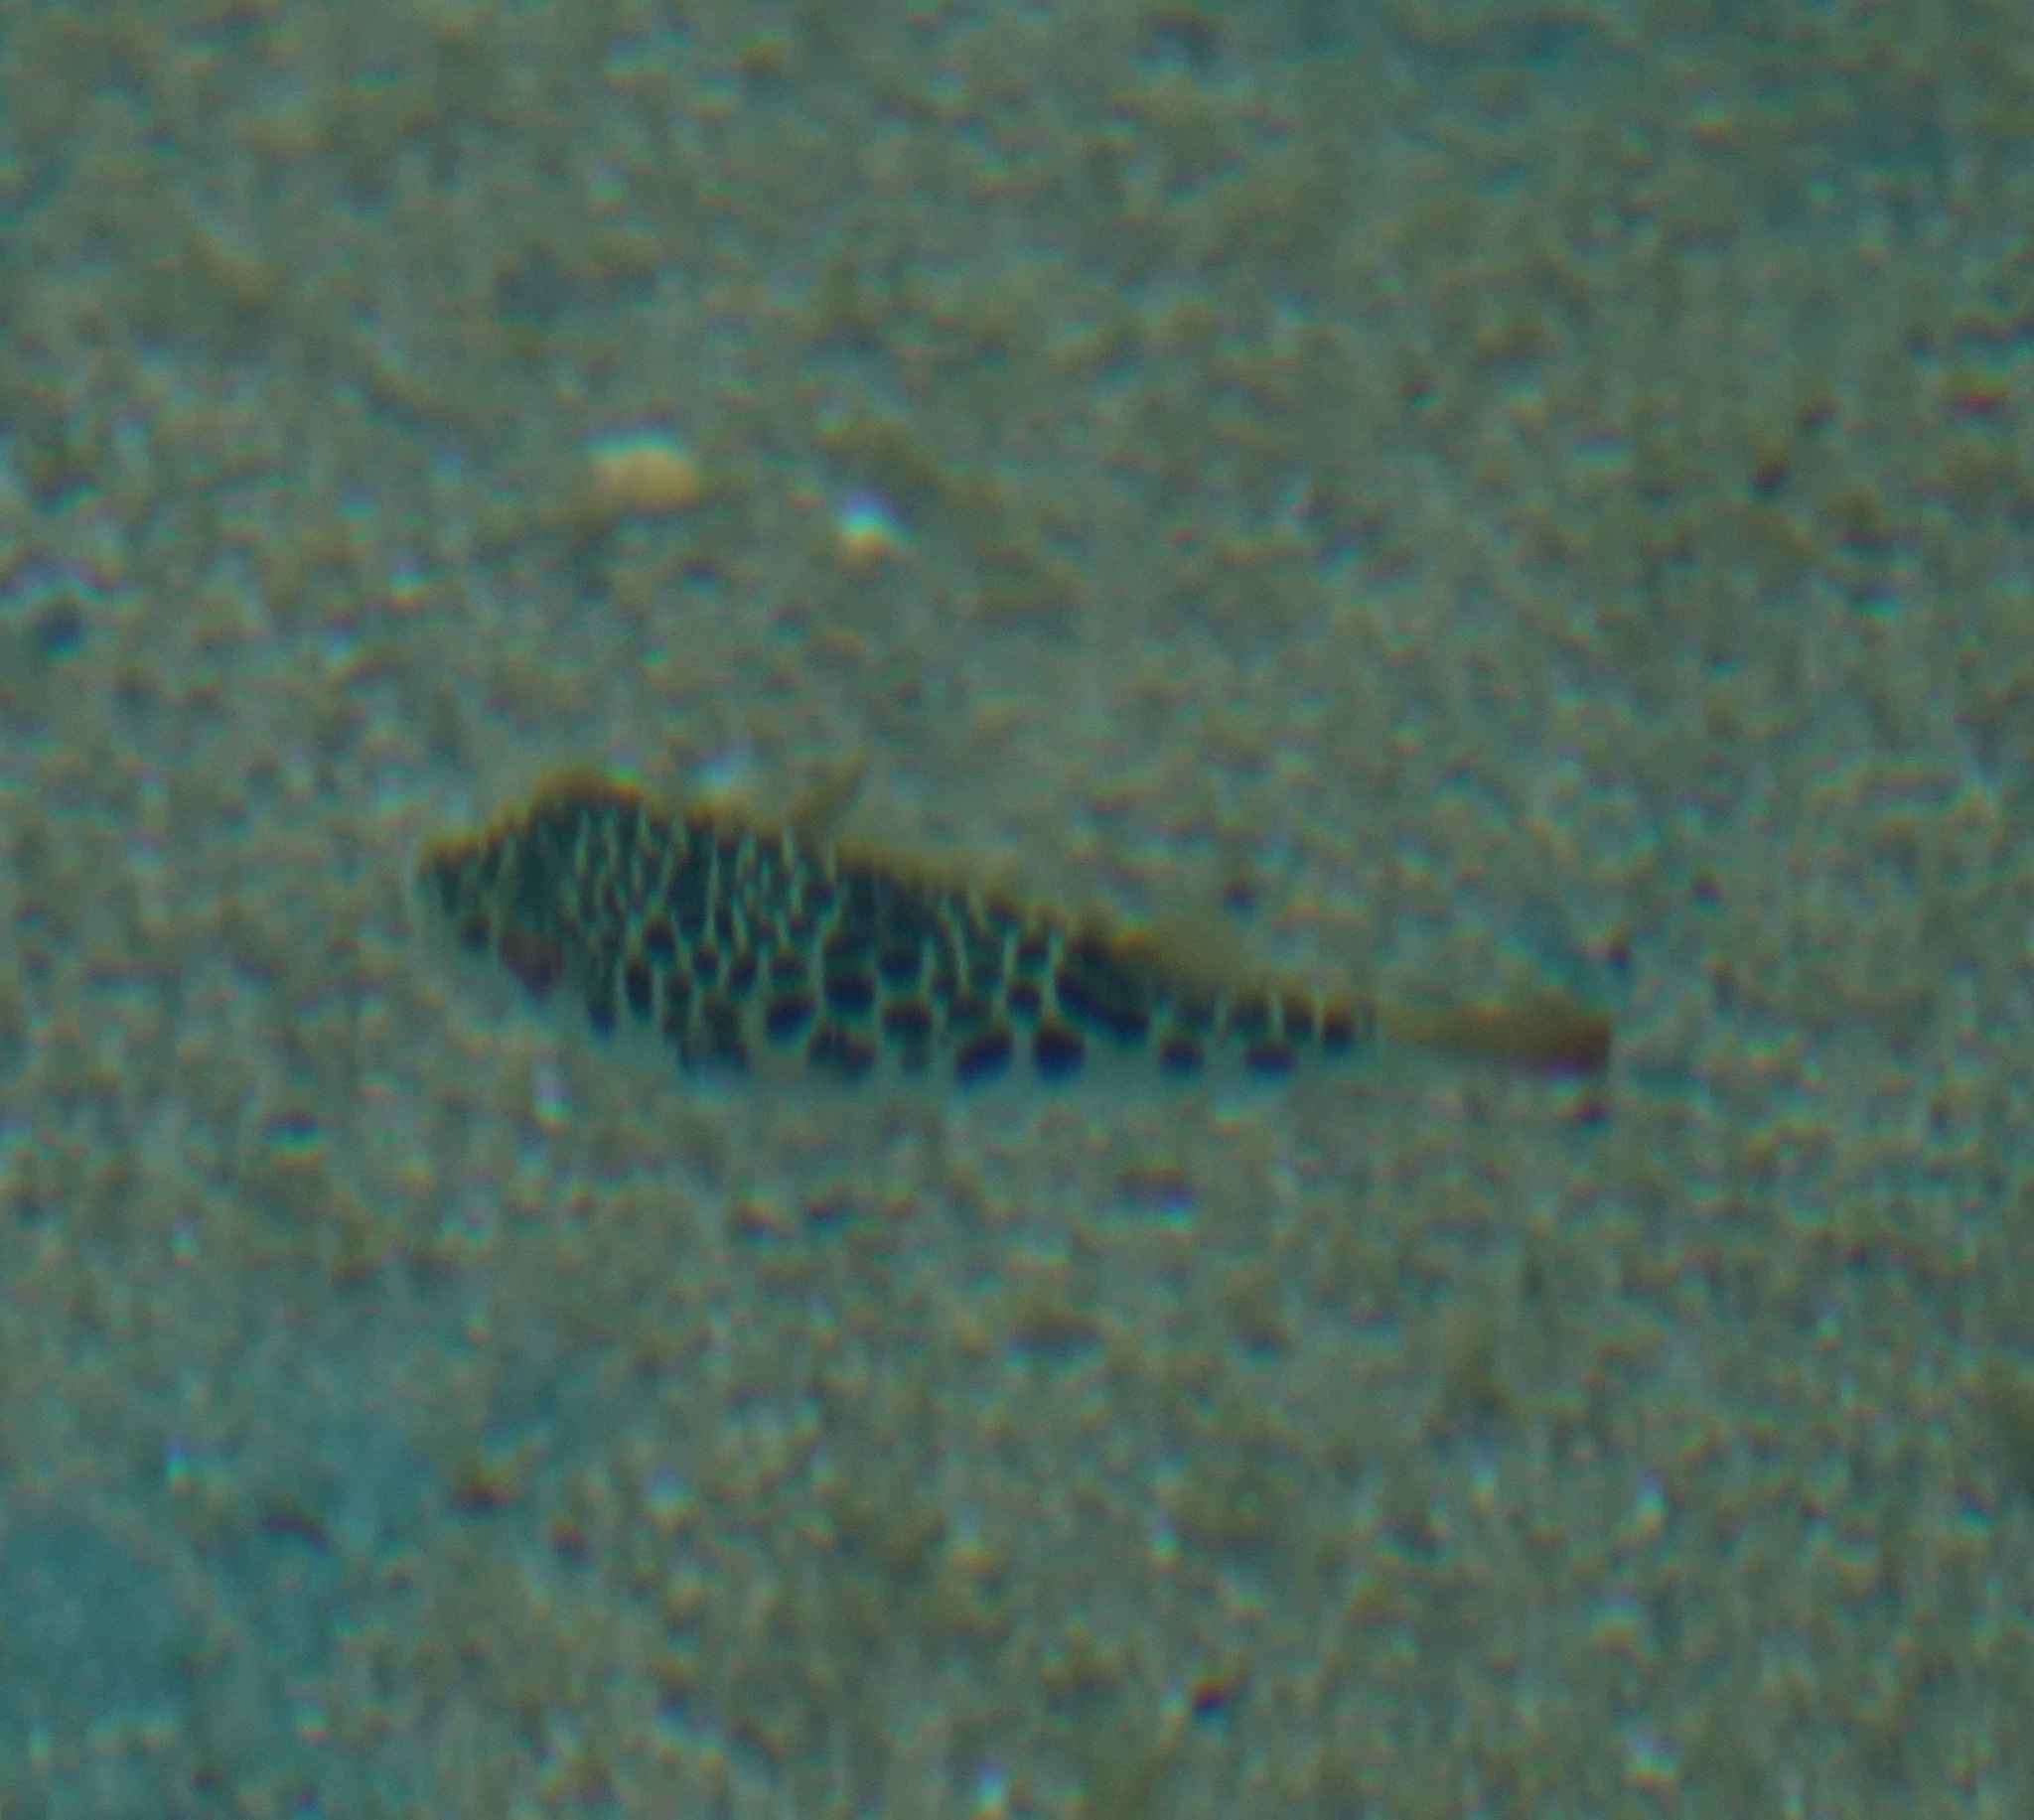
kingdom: Animalia
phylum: Chordata
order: Tetraodontiformes
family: Tetraodontidae
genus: Tetractenos
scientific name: Tetractenos glaber
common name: Smooth toadfish
